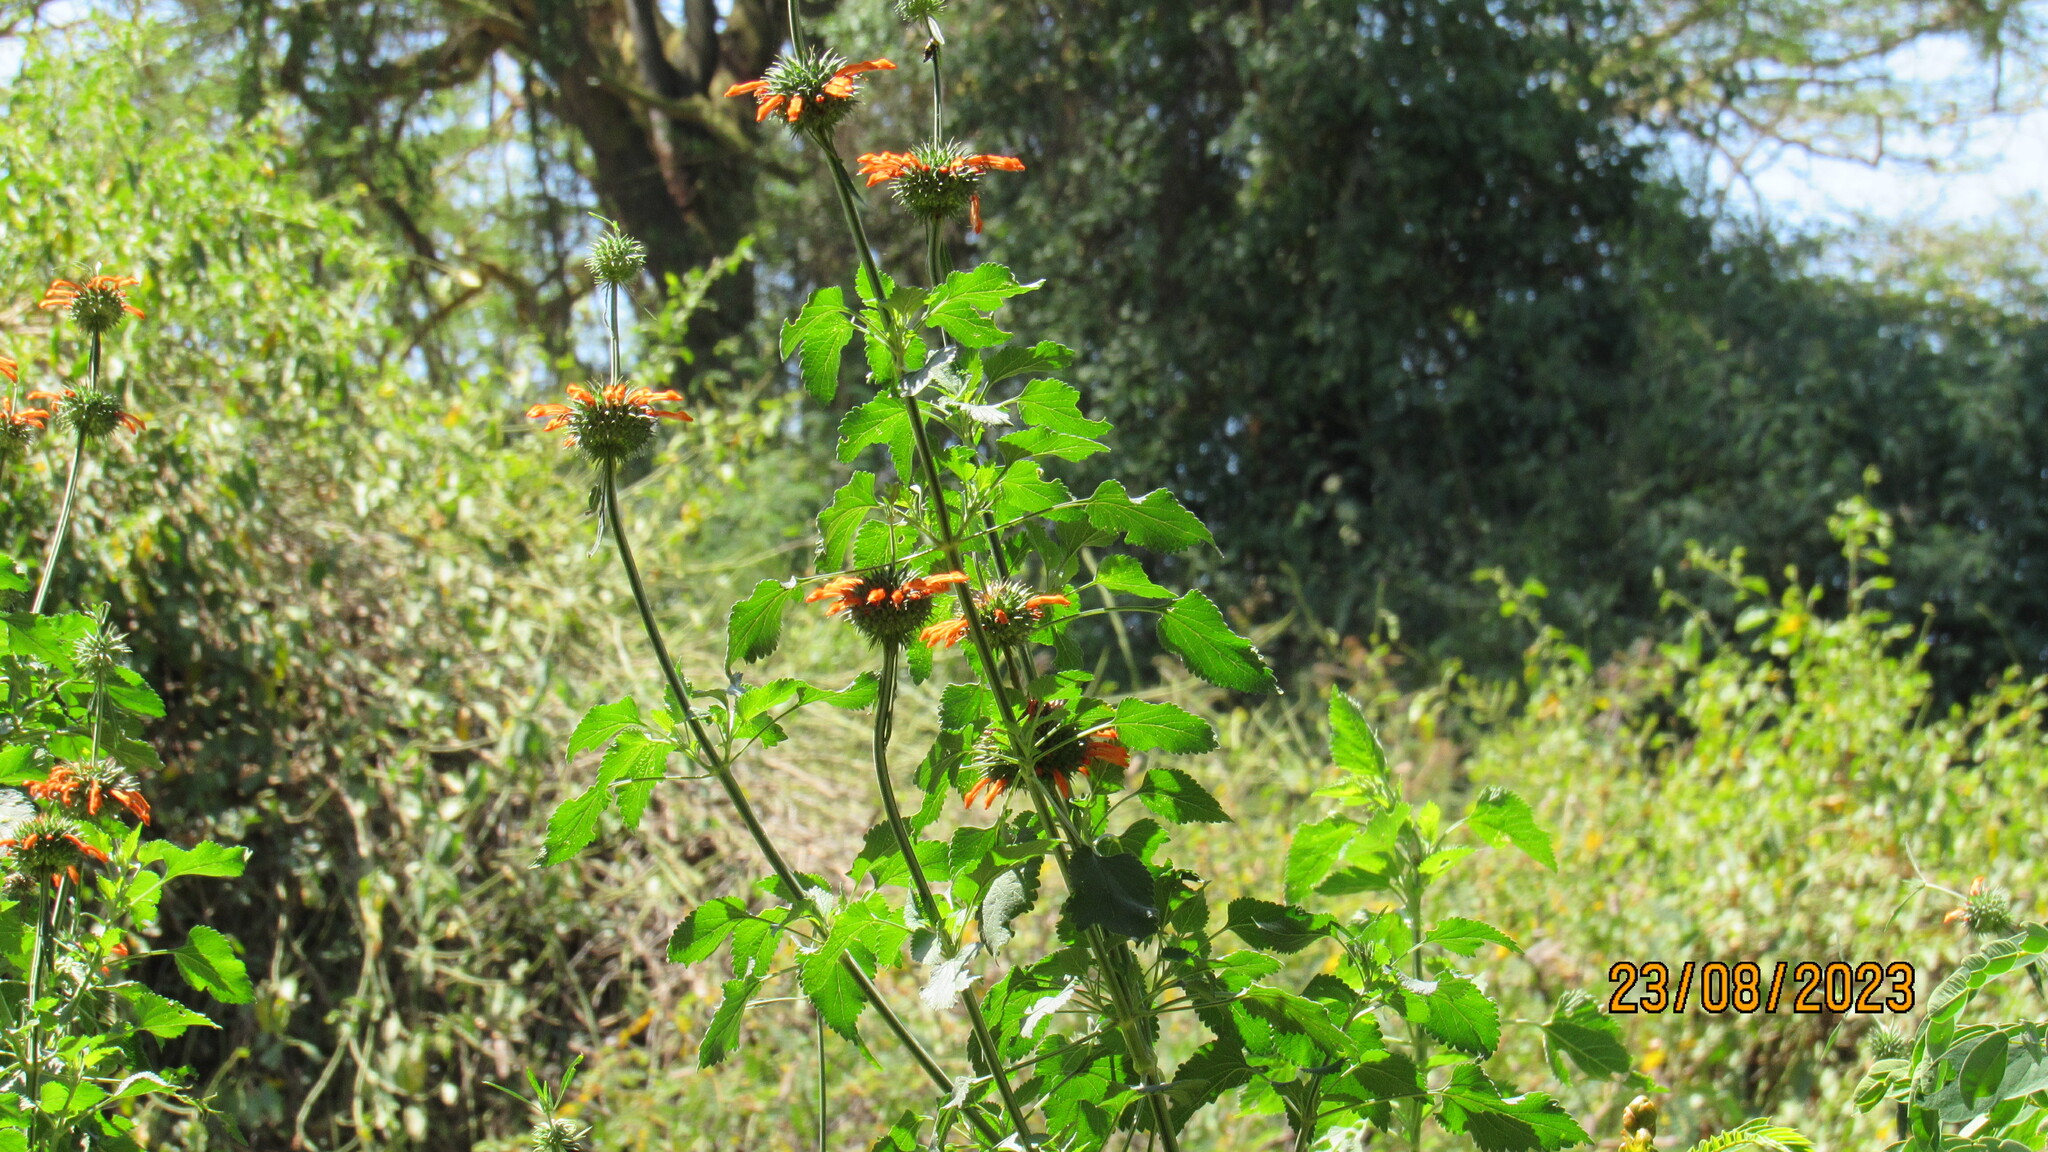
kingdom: Plantae
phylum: Tracheophyta
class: Magnoliopsida
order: Lamiales
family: Lamiaceae
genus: Leonotis
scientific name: Leonotis nepetifolia
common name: Christmas candlestick
